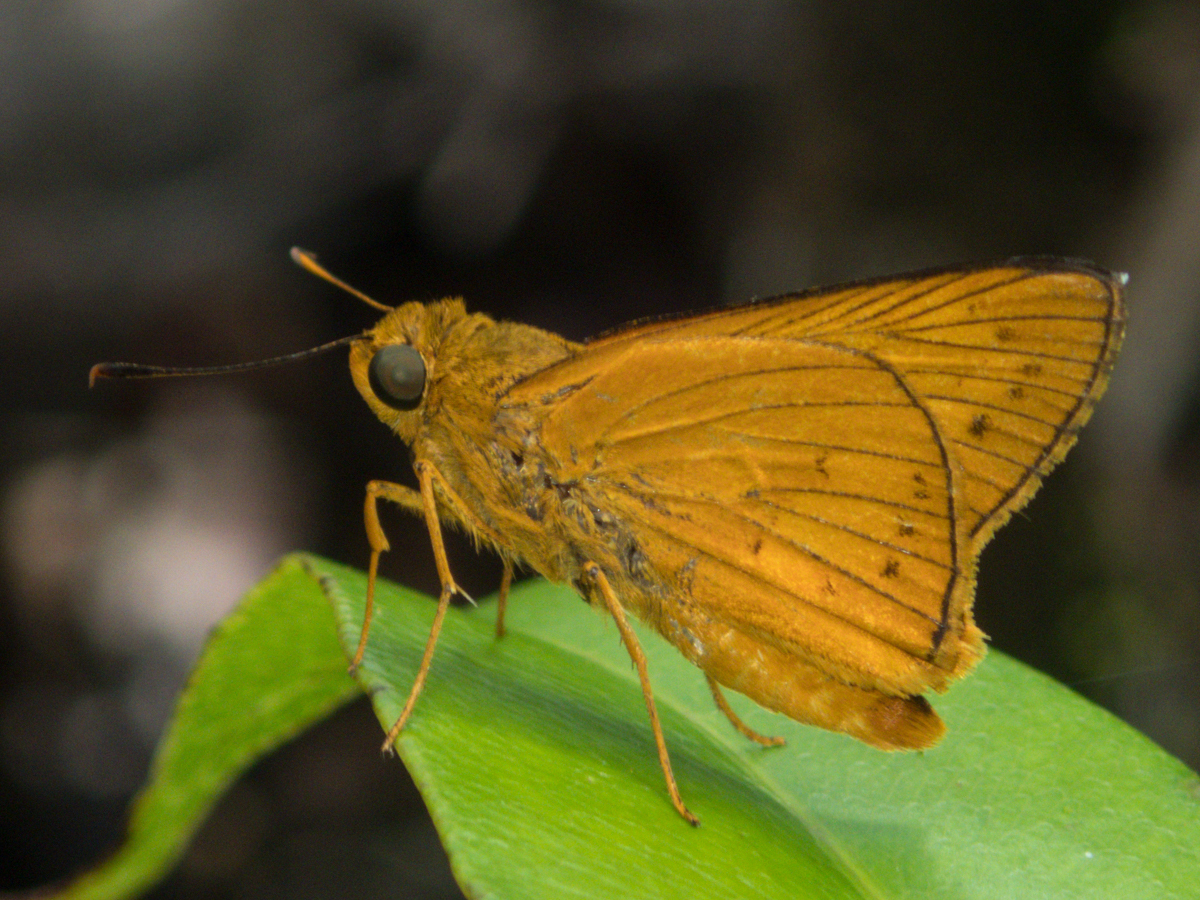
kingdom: Animalia
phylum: Arthropoda
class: Insecta
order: Lepidoptera
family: Hesperiidae
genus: Cephrenes
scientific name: Cephrenes
